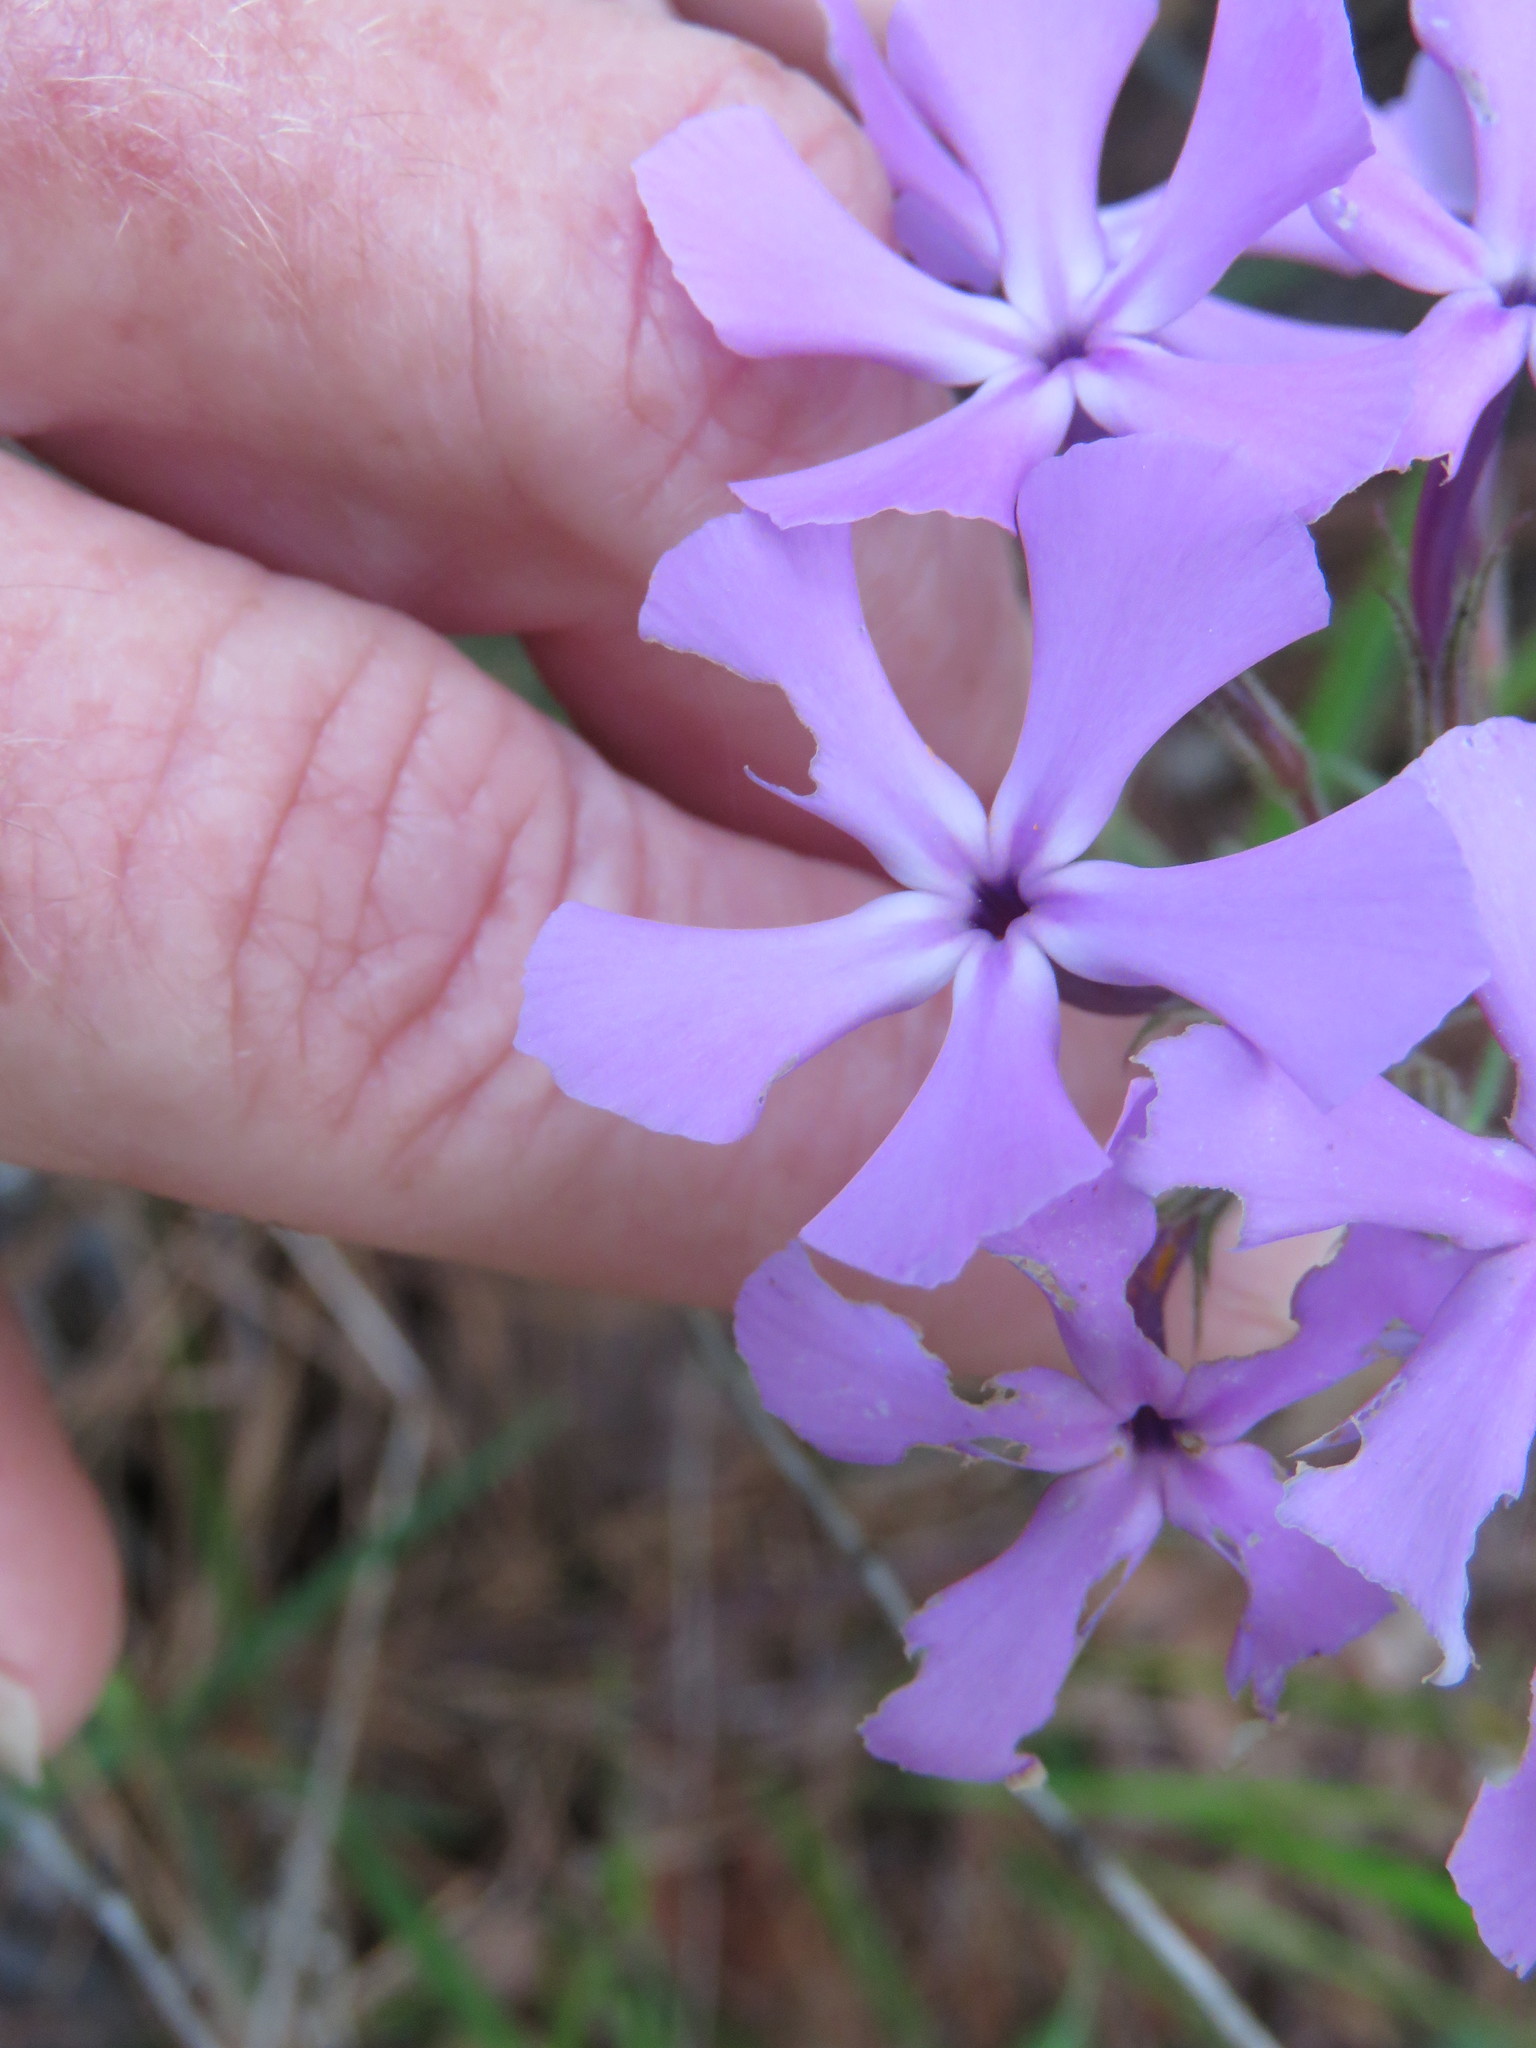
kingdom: Plantae
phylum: Tracheophyta
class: Magnoliopsida
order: Ericales
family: Polemoniaceae
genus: Phlox
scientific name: Phlox pilosa
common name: Prairie phlox
